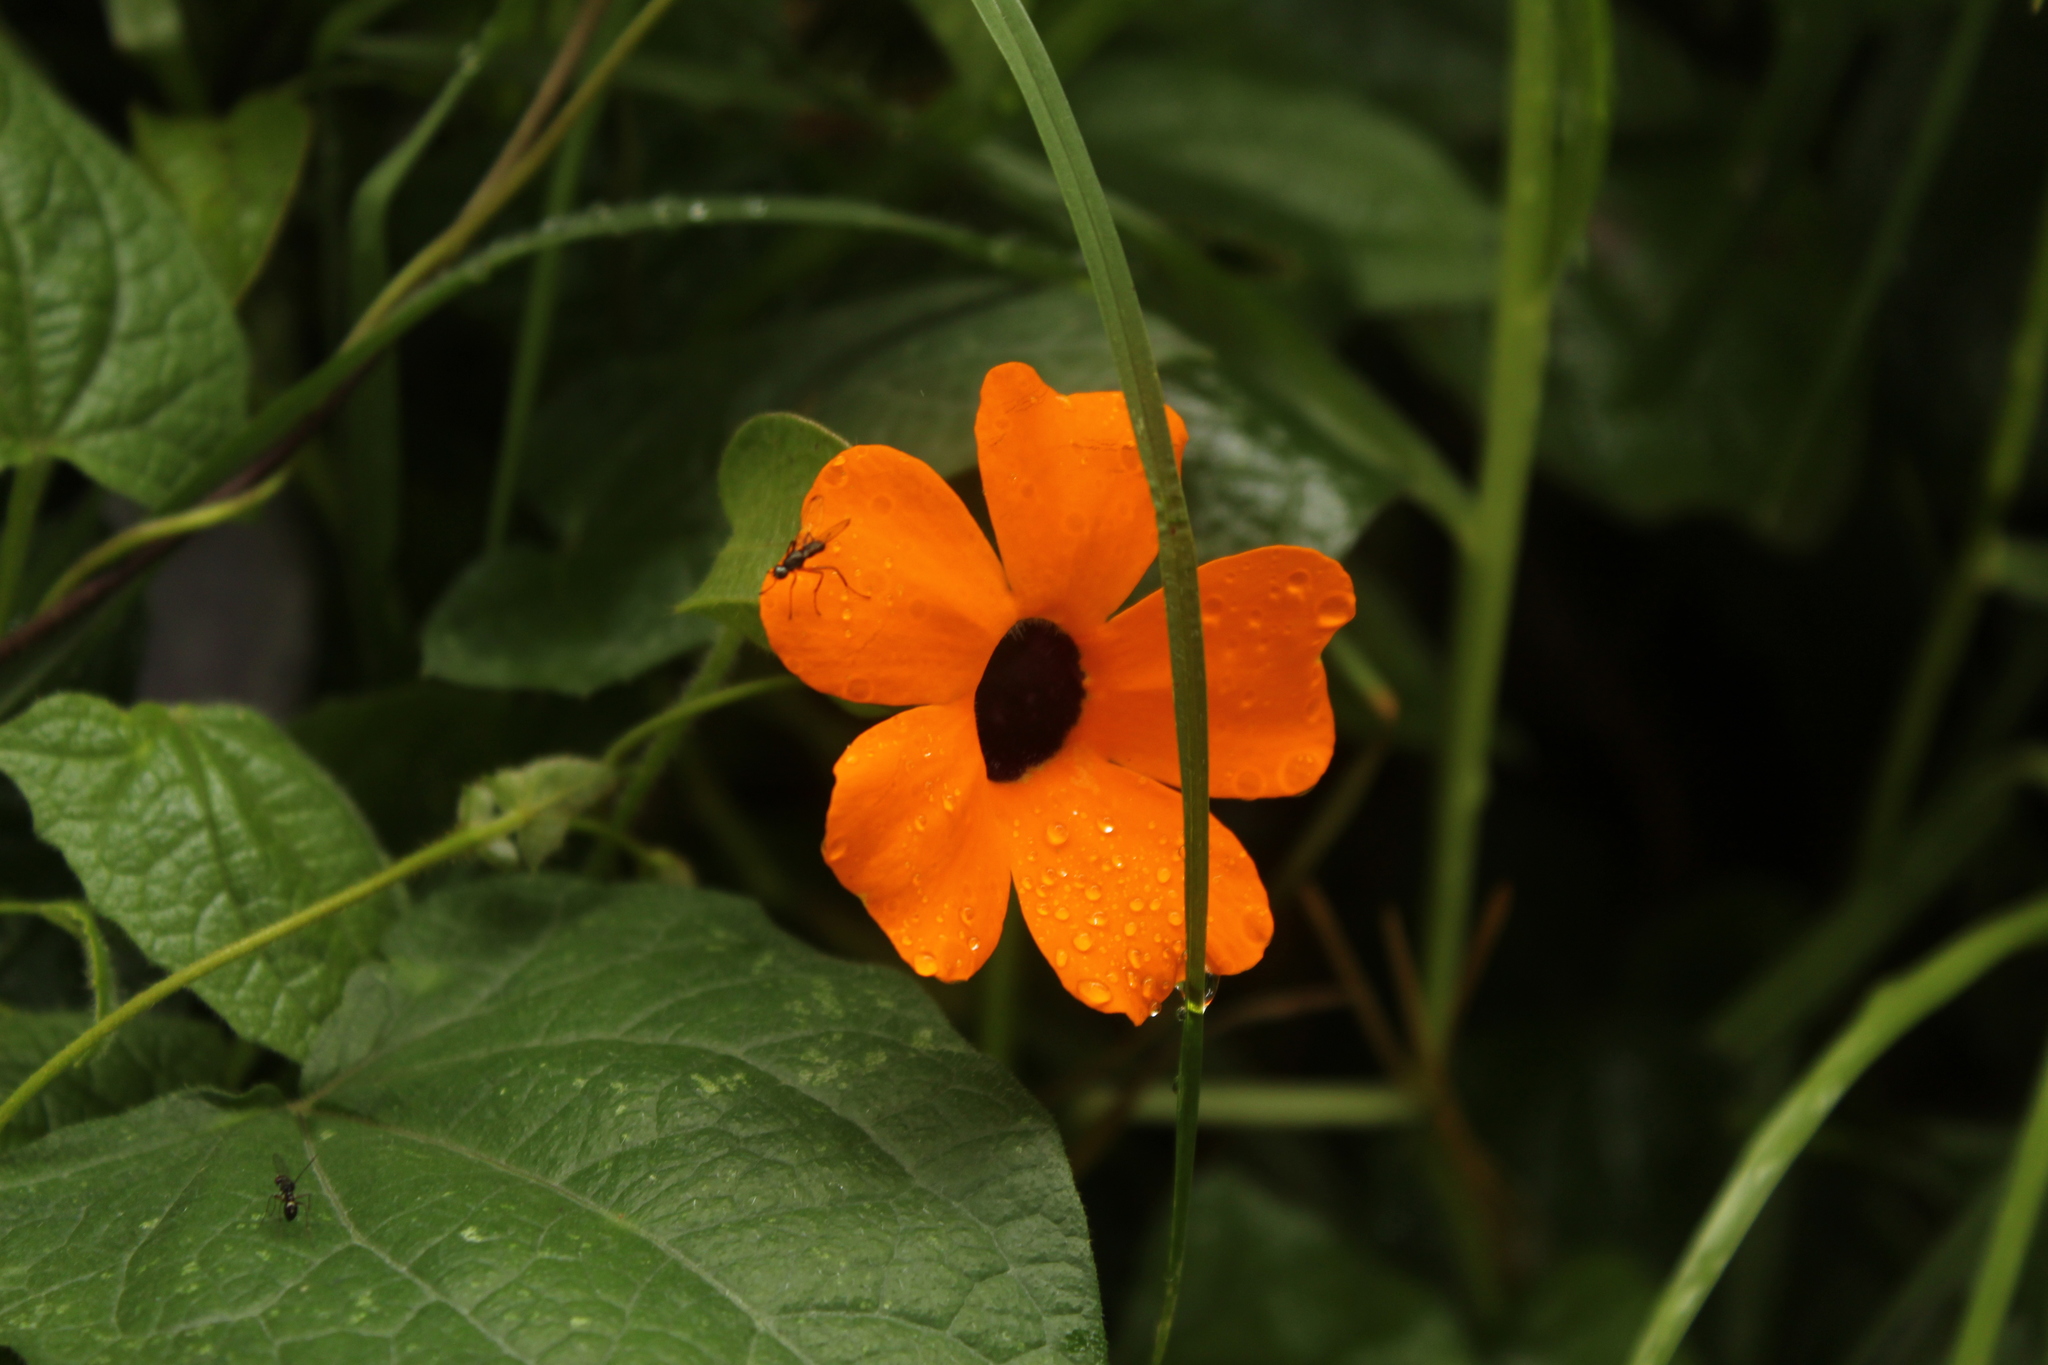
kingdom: Plantae
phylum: Tracheophyta
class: Magnoliopsida
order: Lamiales
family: Acanthaceae
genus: Thunbergia
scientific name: Thunbergia alata
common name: Blackeyed susan vine
